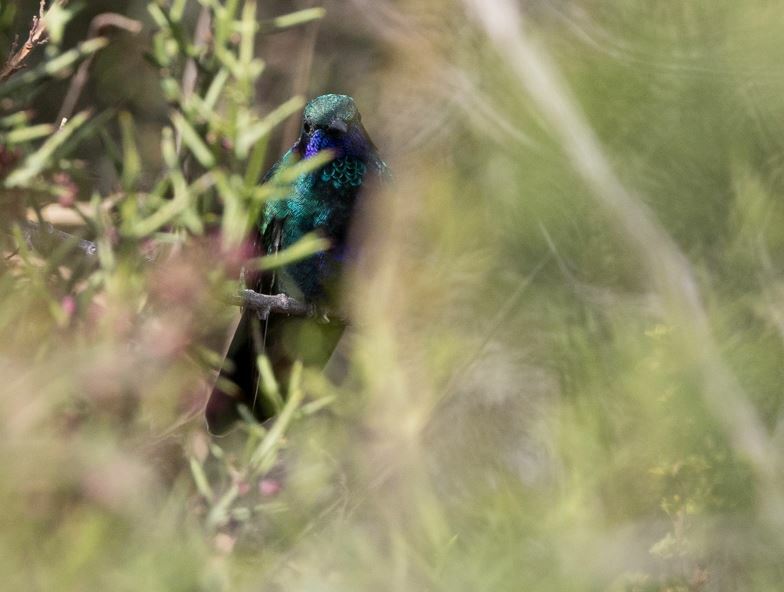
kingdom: Animalia
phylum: Chordata
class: Aves
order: Apodiformes
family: Trochilidae
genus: Colibri
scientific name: Colibri coruscans
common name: Sparkling violetear
